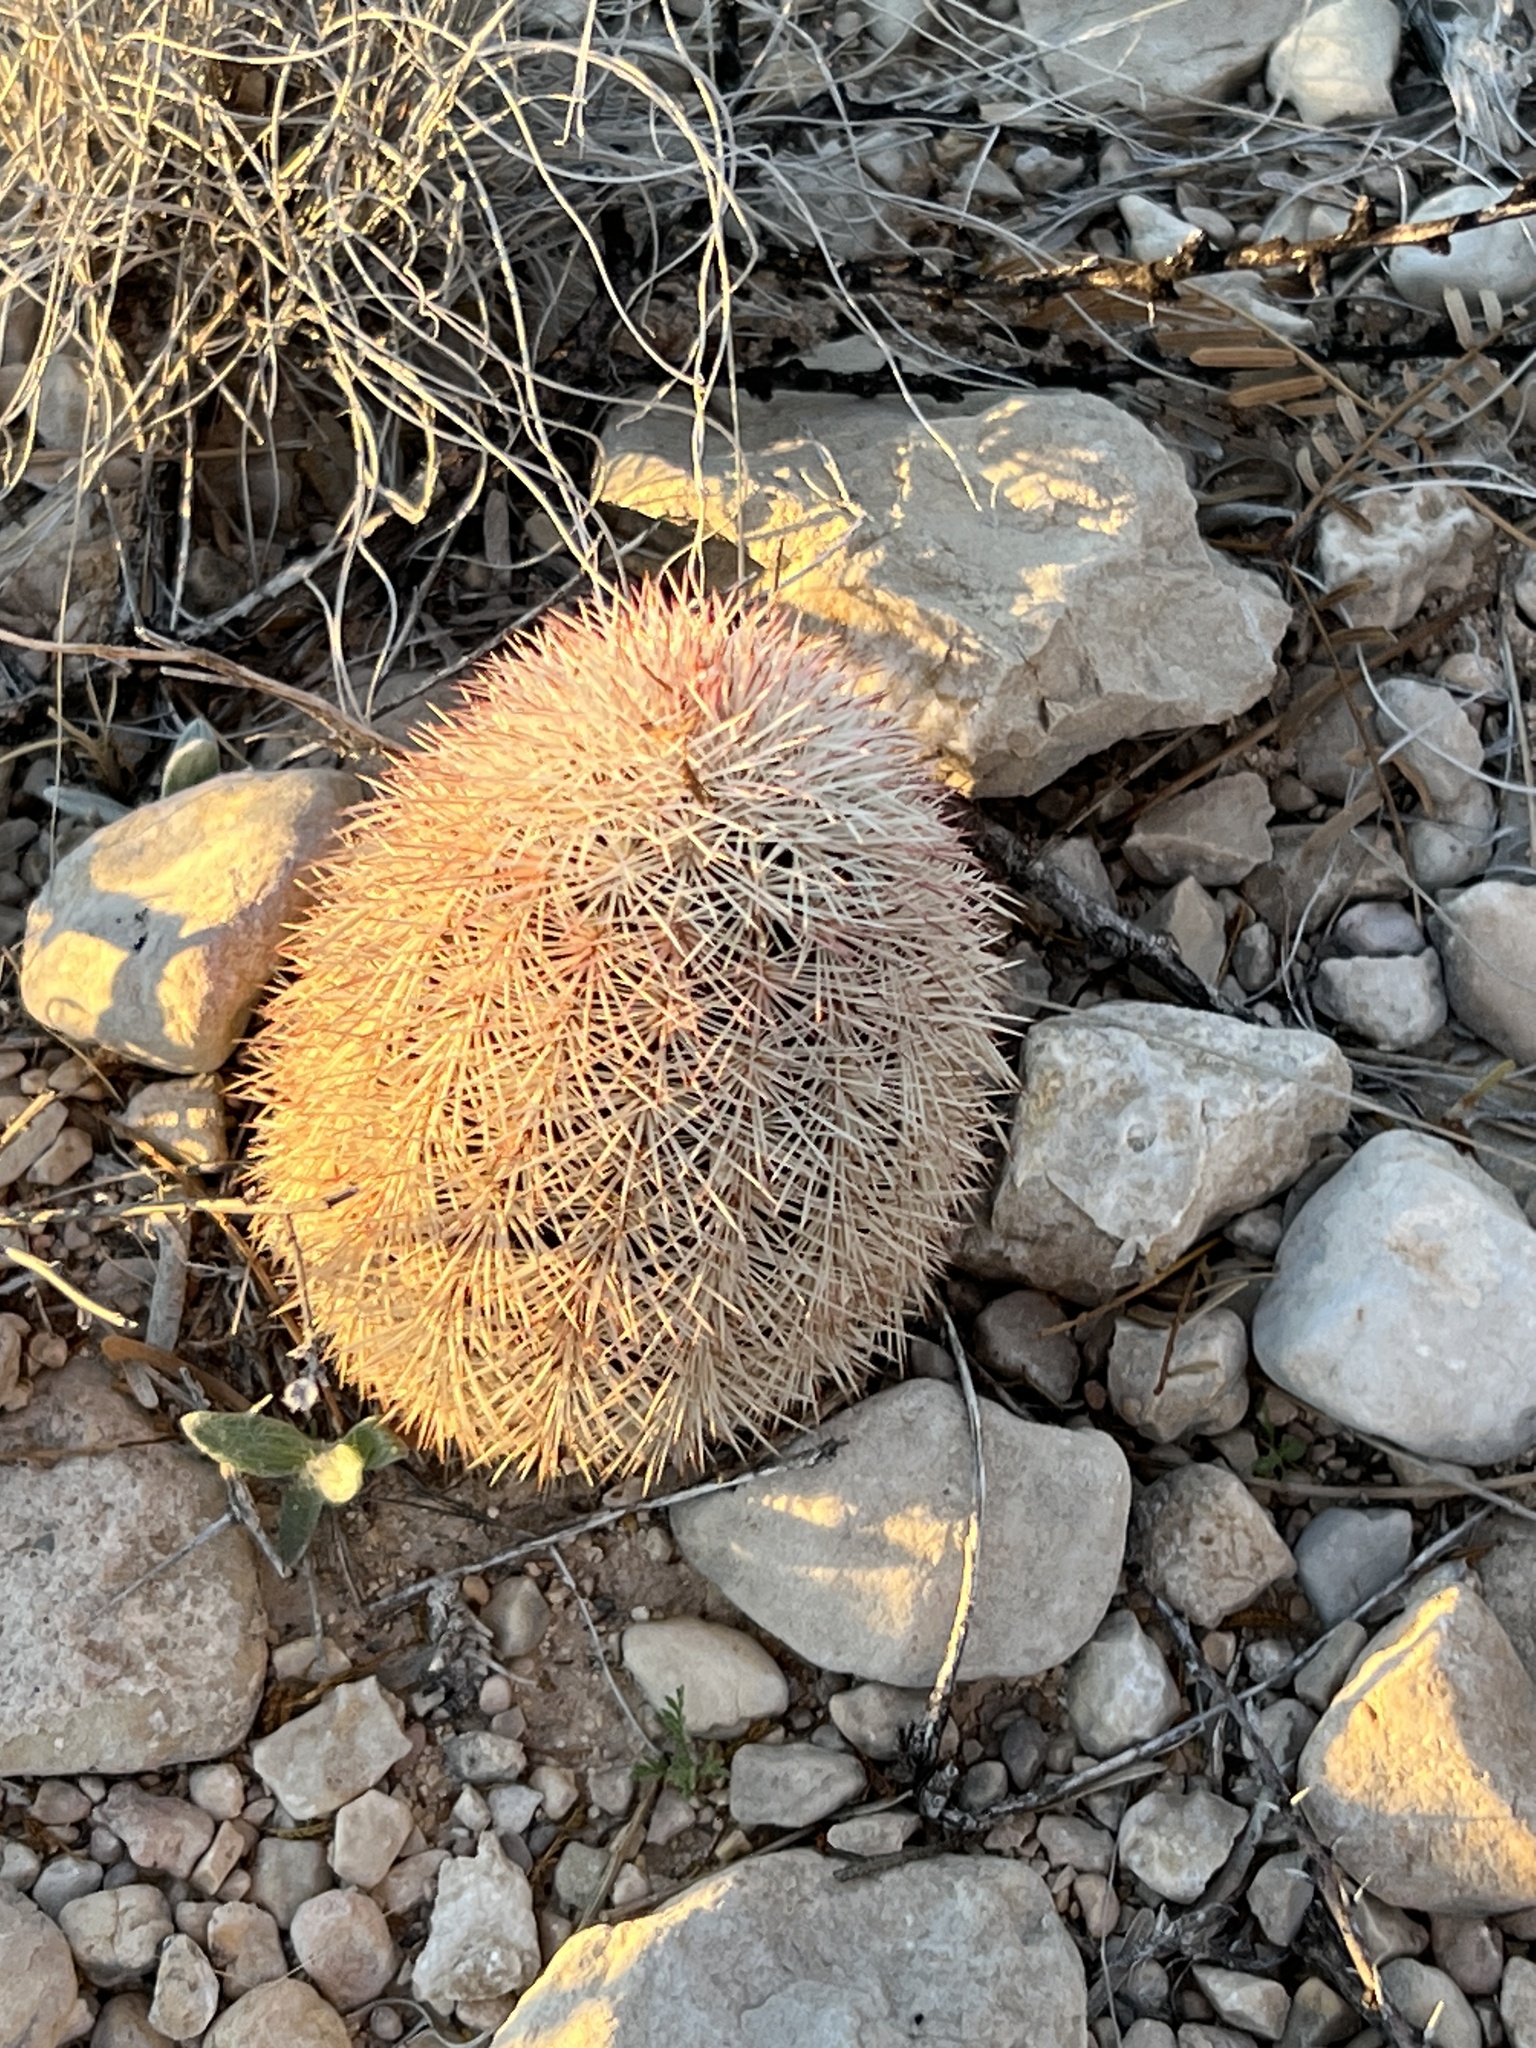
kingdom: Plantae
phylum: Tracheophyta
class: Magnoliopsida
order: Caryophyllales
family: Cactaceae
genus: Echinocereus
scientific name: Echinocereus dasyacanthus
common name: Spiny hedgehog cactus
